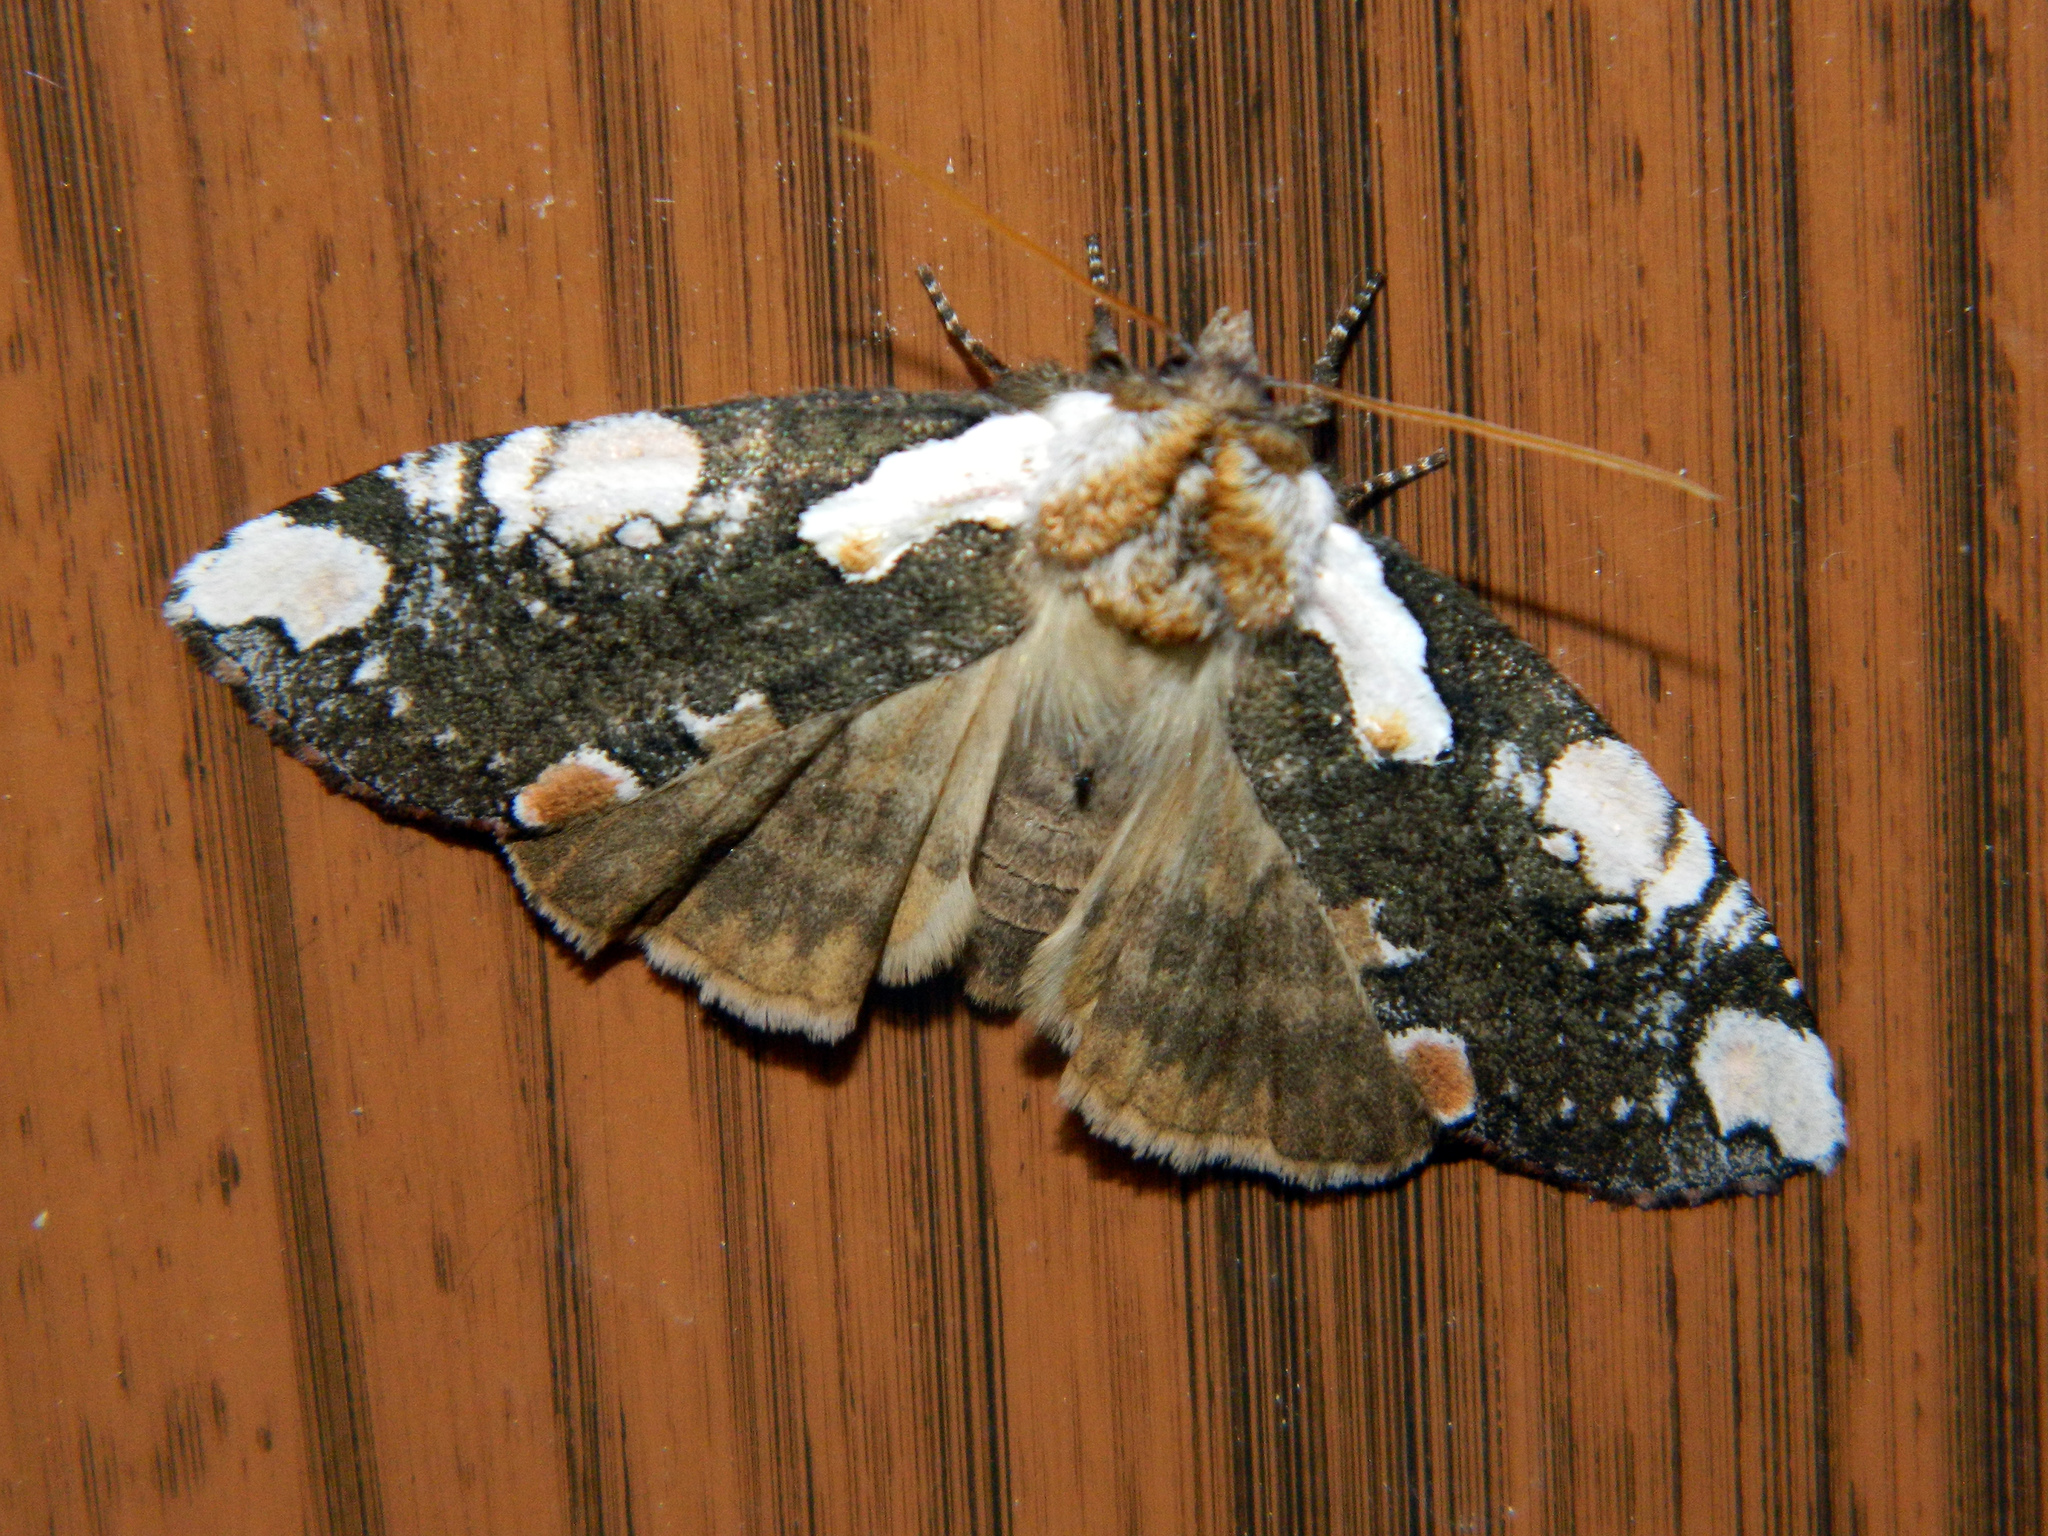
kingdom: Animalia
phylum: Arthropoda
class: Insecta
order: Lepidoptera
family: Drepanidae
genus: Euthyatira
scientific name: Euthyatira pudens
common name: Dogwood thyatirid moth
